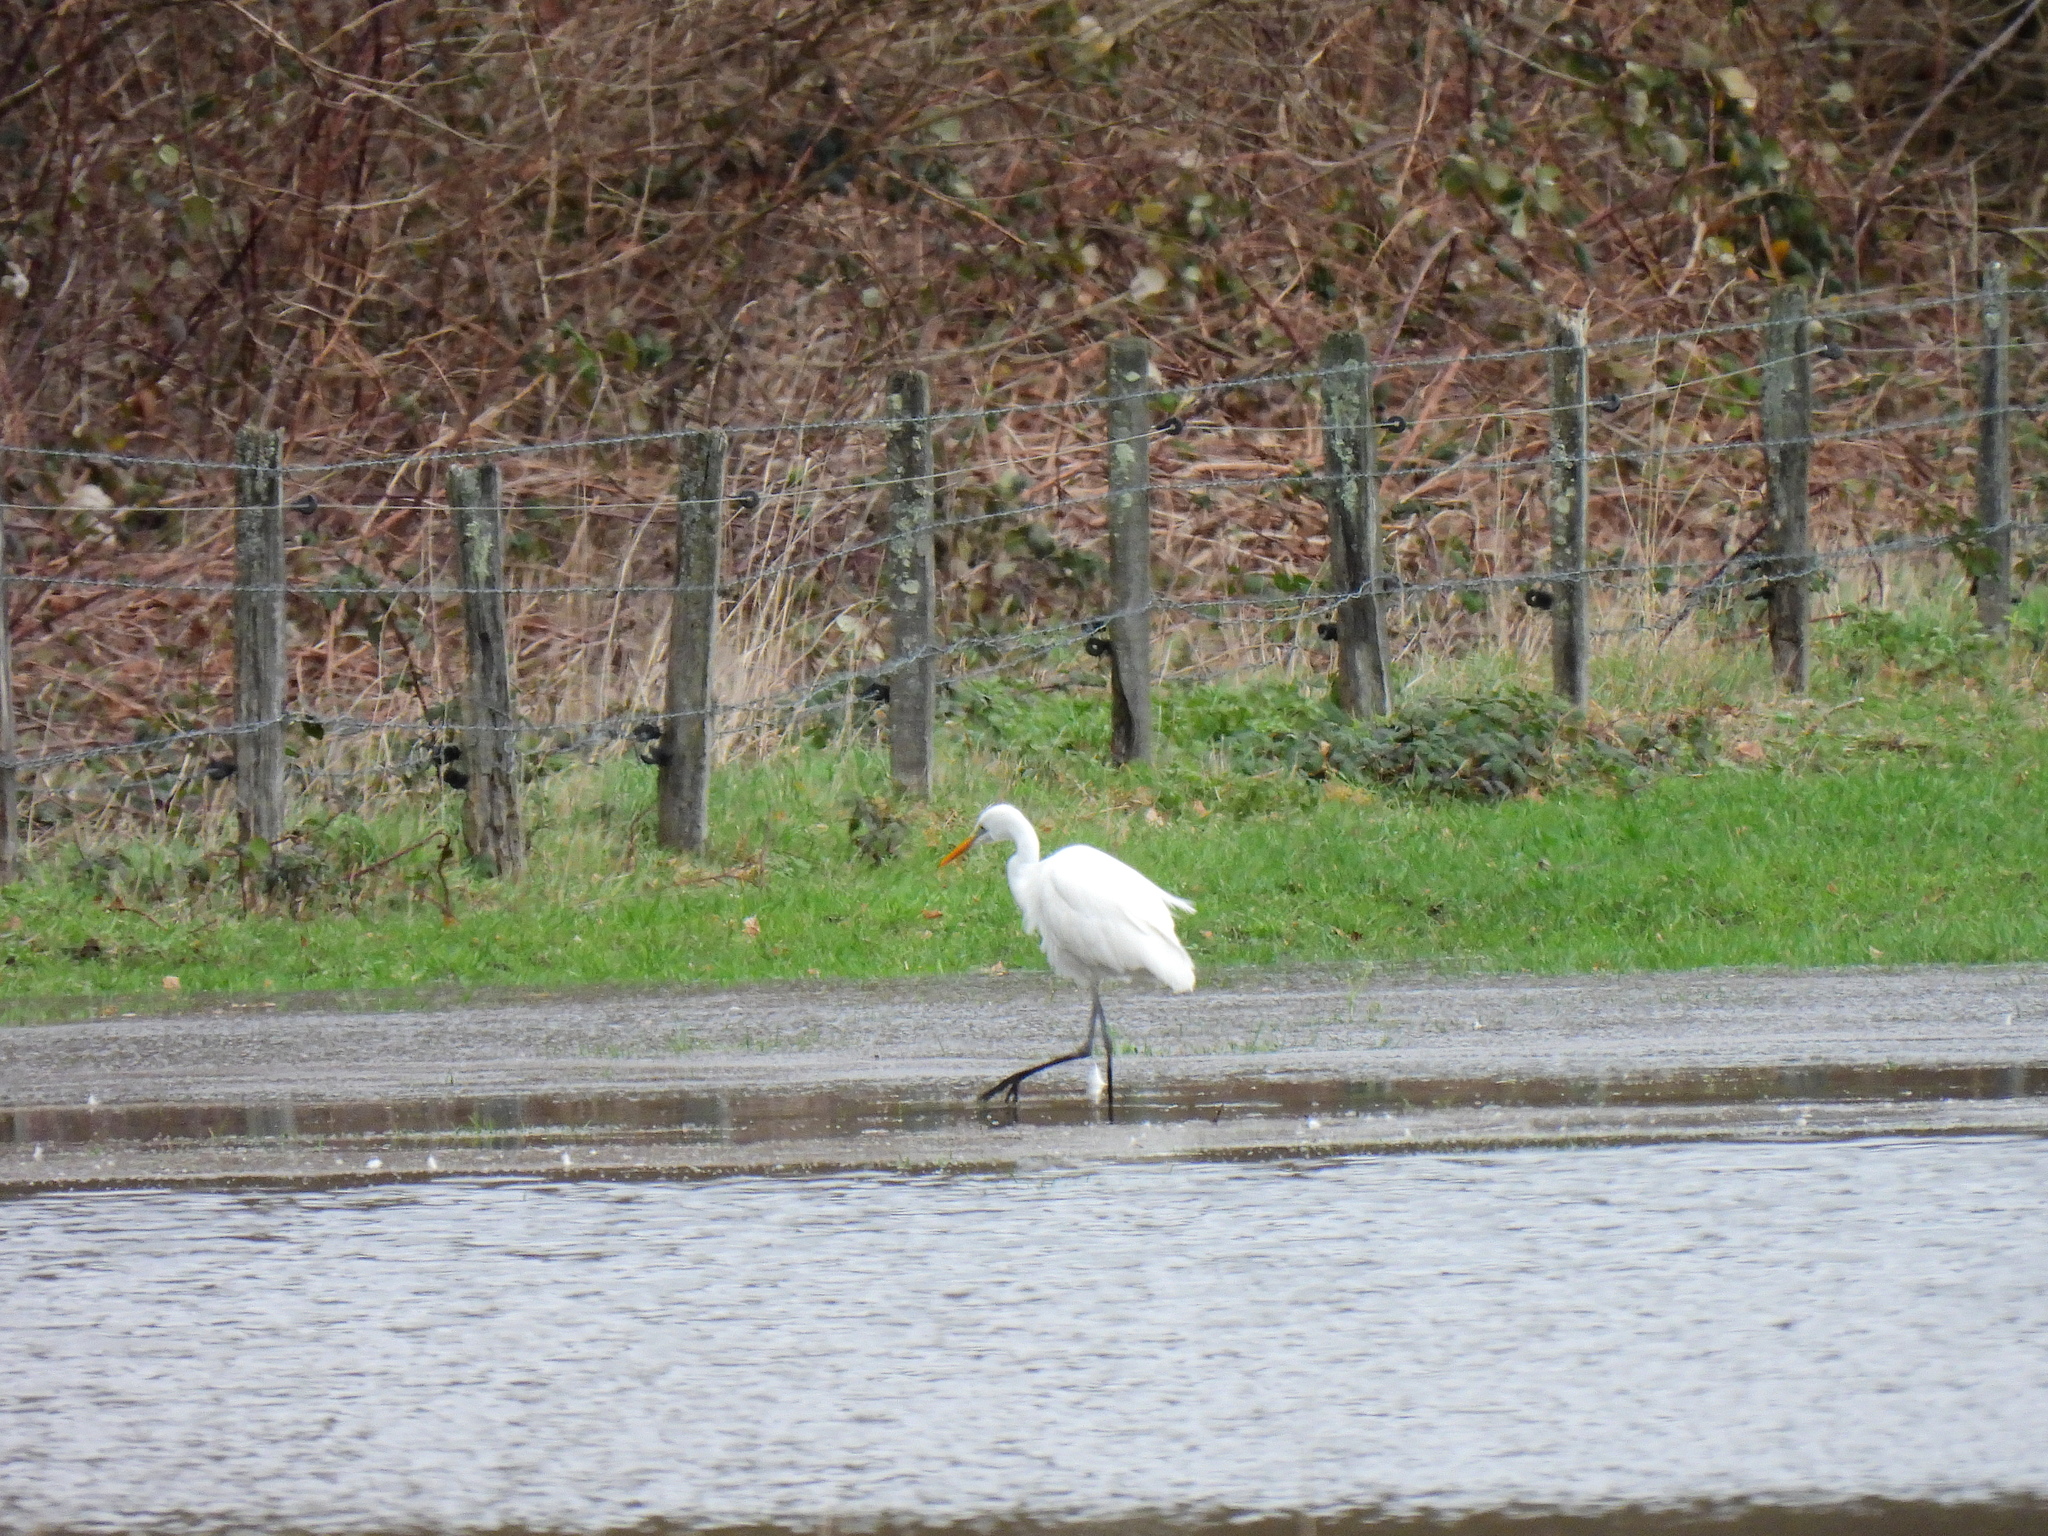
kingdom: Animalia
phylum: Chordata
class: Aves
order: Pelecaniformes
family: Ardeidae
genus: Ardea
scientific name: Ardea alba
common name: Great egret
